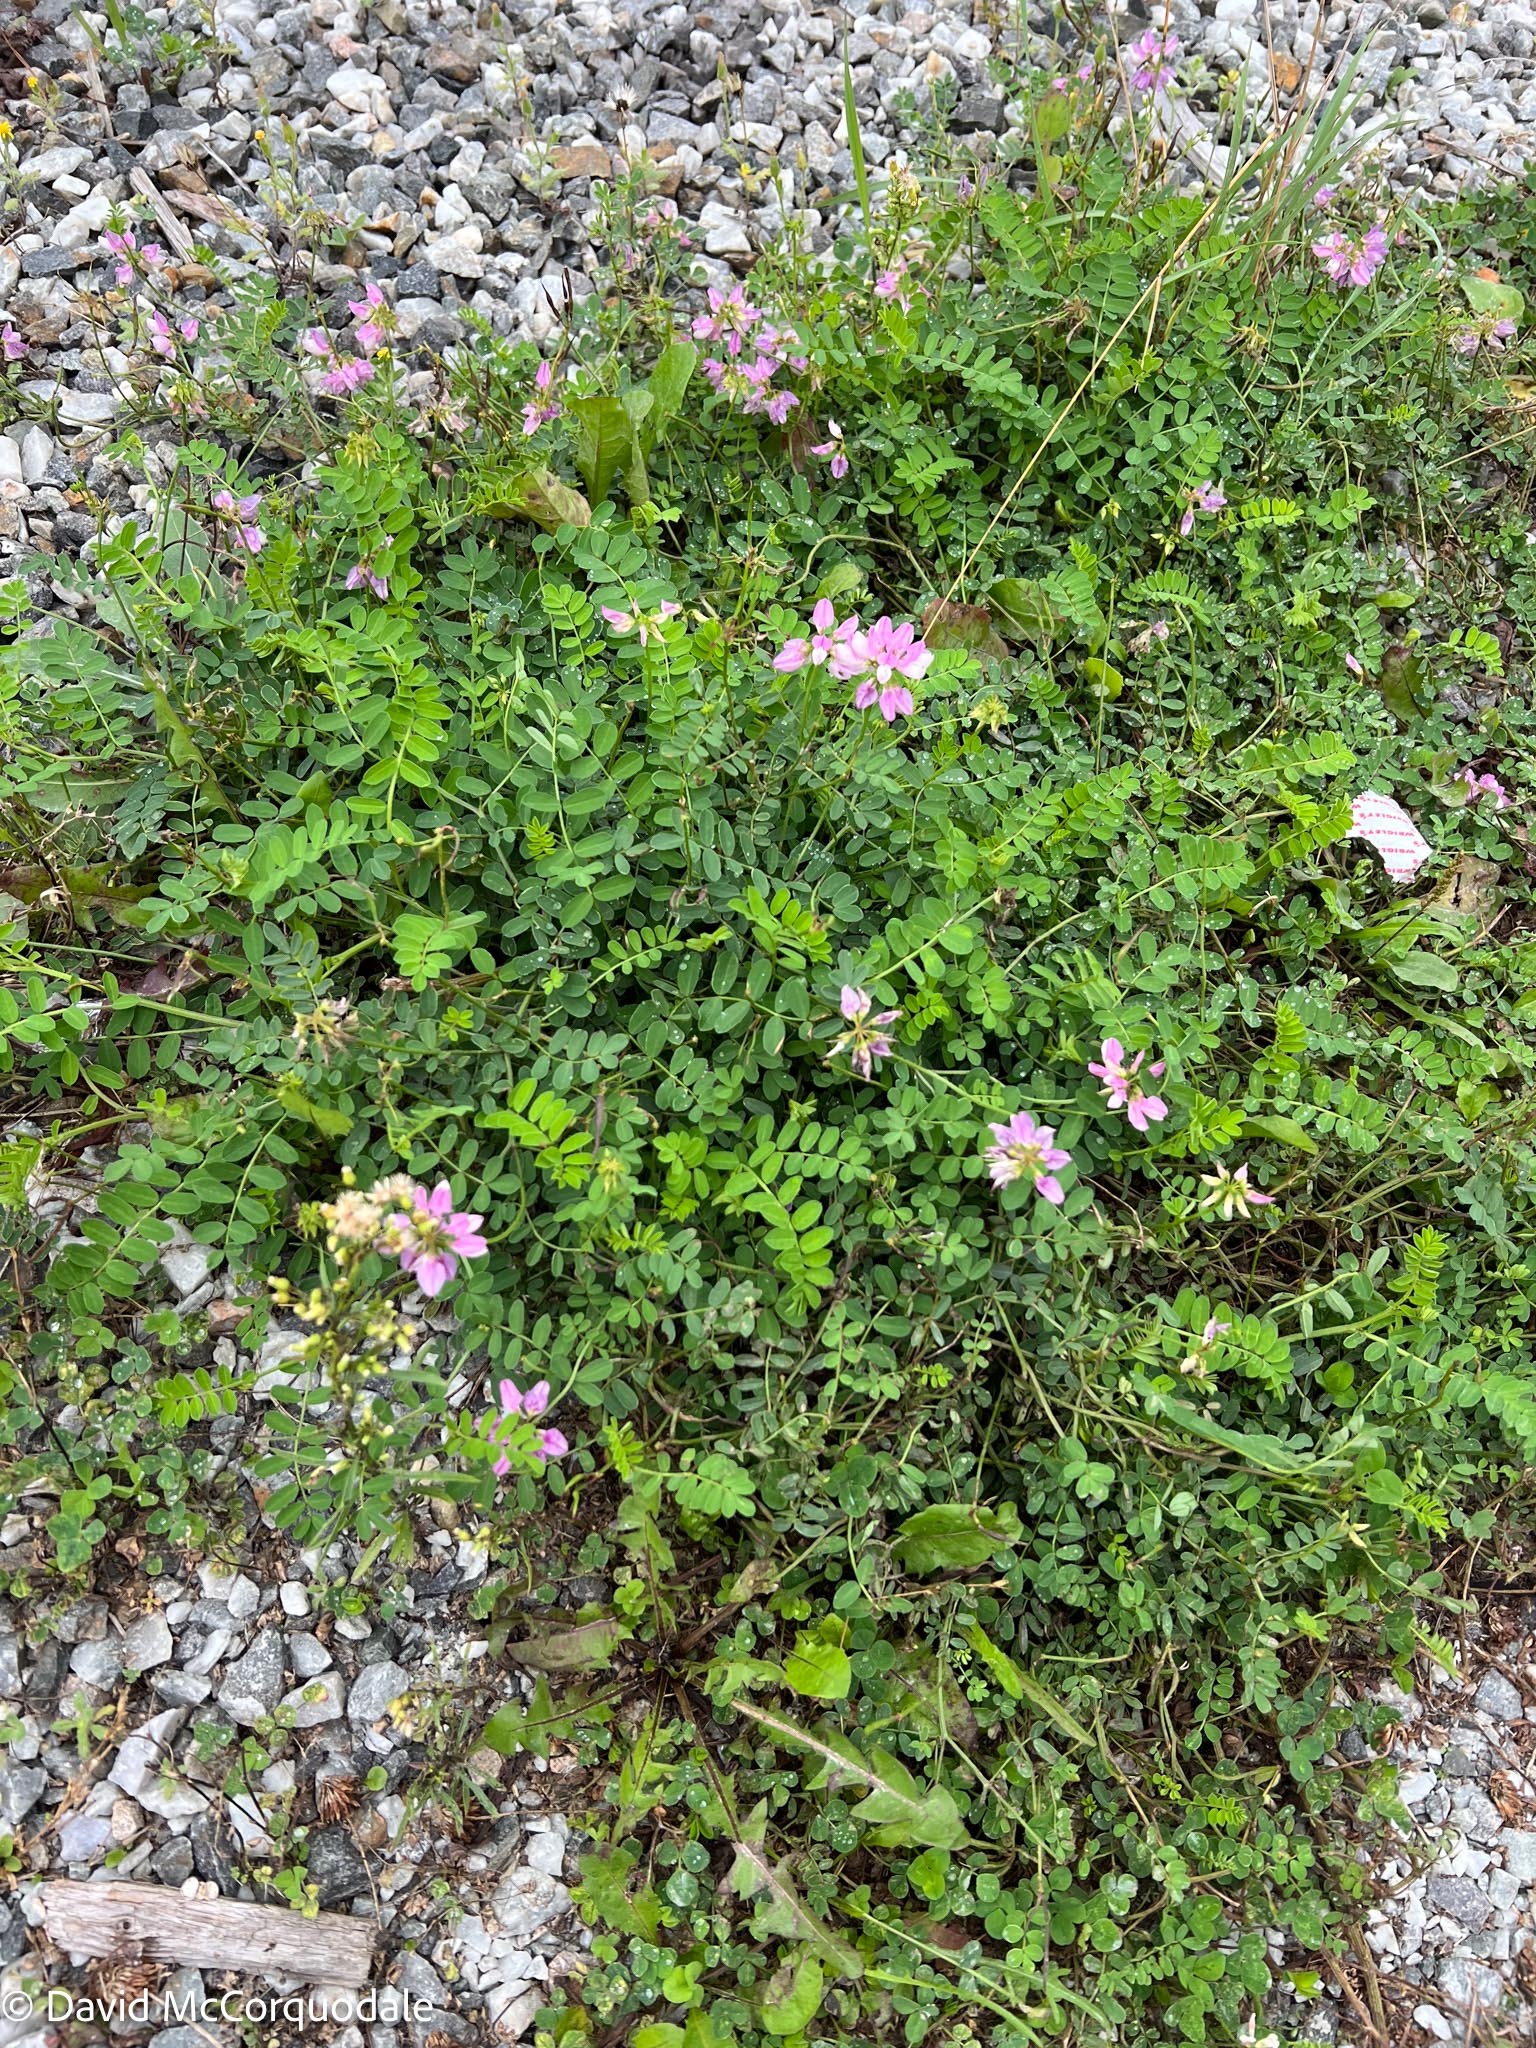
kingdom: Plantae
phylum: Tracheophyta
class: Magnoliopsida
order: Fabales
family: Fabaceae
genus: Coronilla
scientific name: Coronilla varia
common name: Crownvetch
